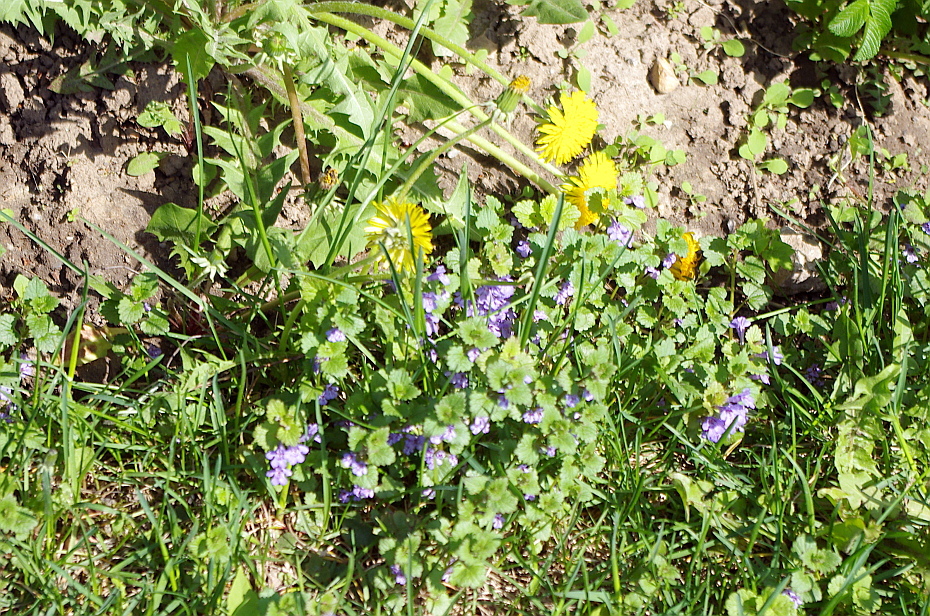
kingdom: Plantae
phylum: Tracheophyta
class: Magnoliopsida
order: Lamiales
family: Lamiaceae
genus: Glechoma
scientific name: Glechoma hederacea
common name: Ground ivy
